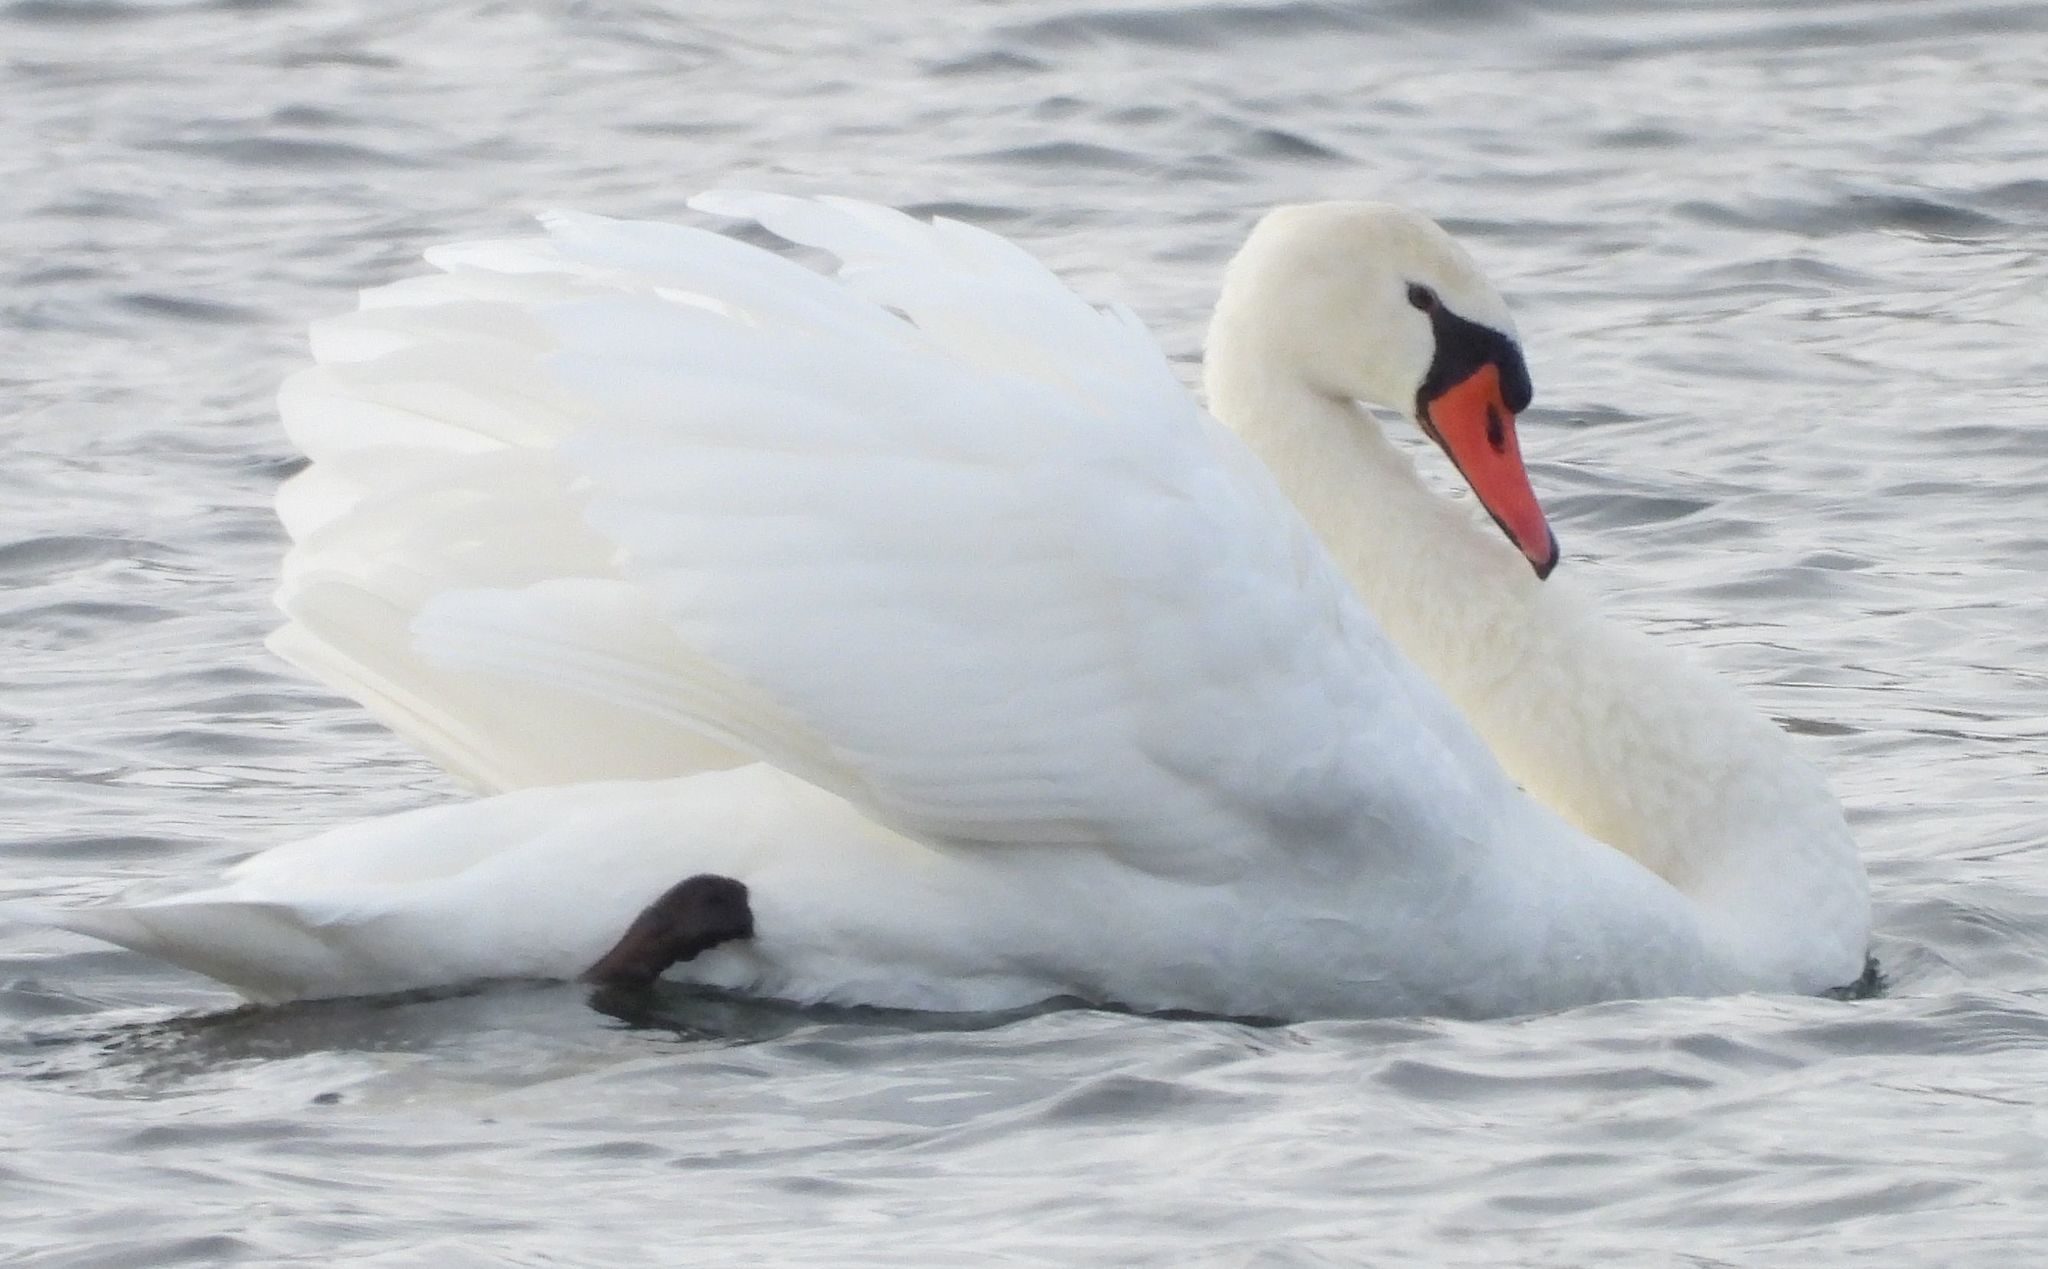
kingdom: Animalia
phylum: Chordata
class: Aves
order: Anseriformes
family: Anatidae
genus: Cygnus
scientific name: Cygnus olor
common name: Mute swan
